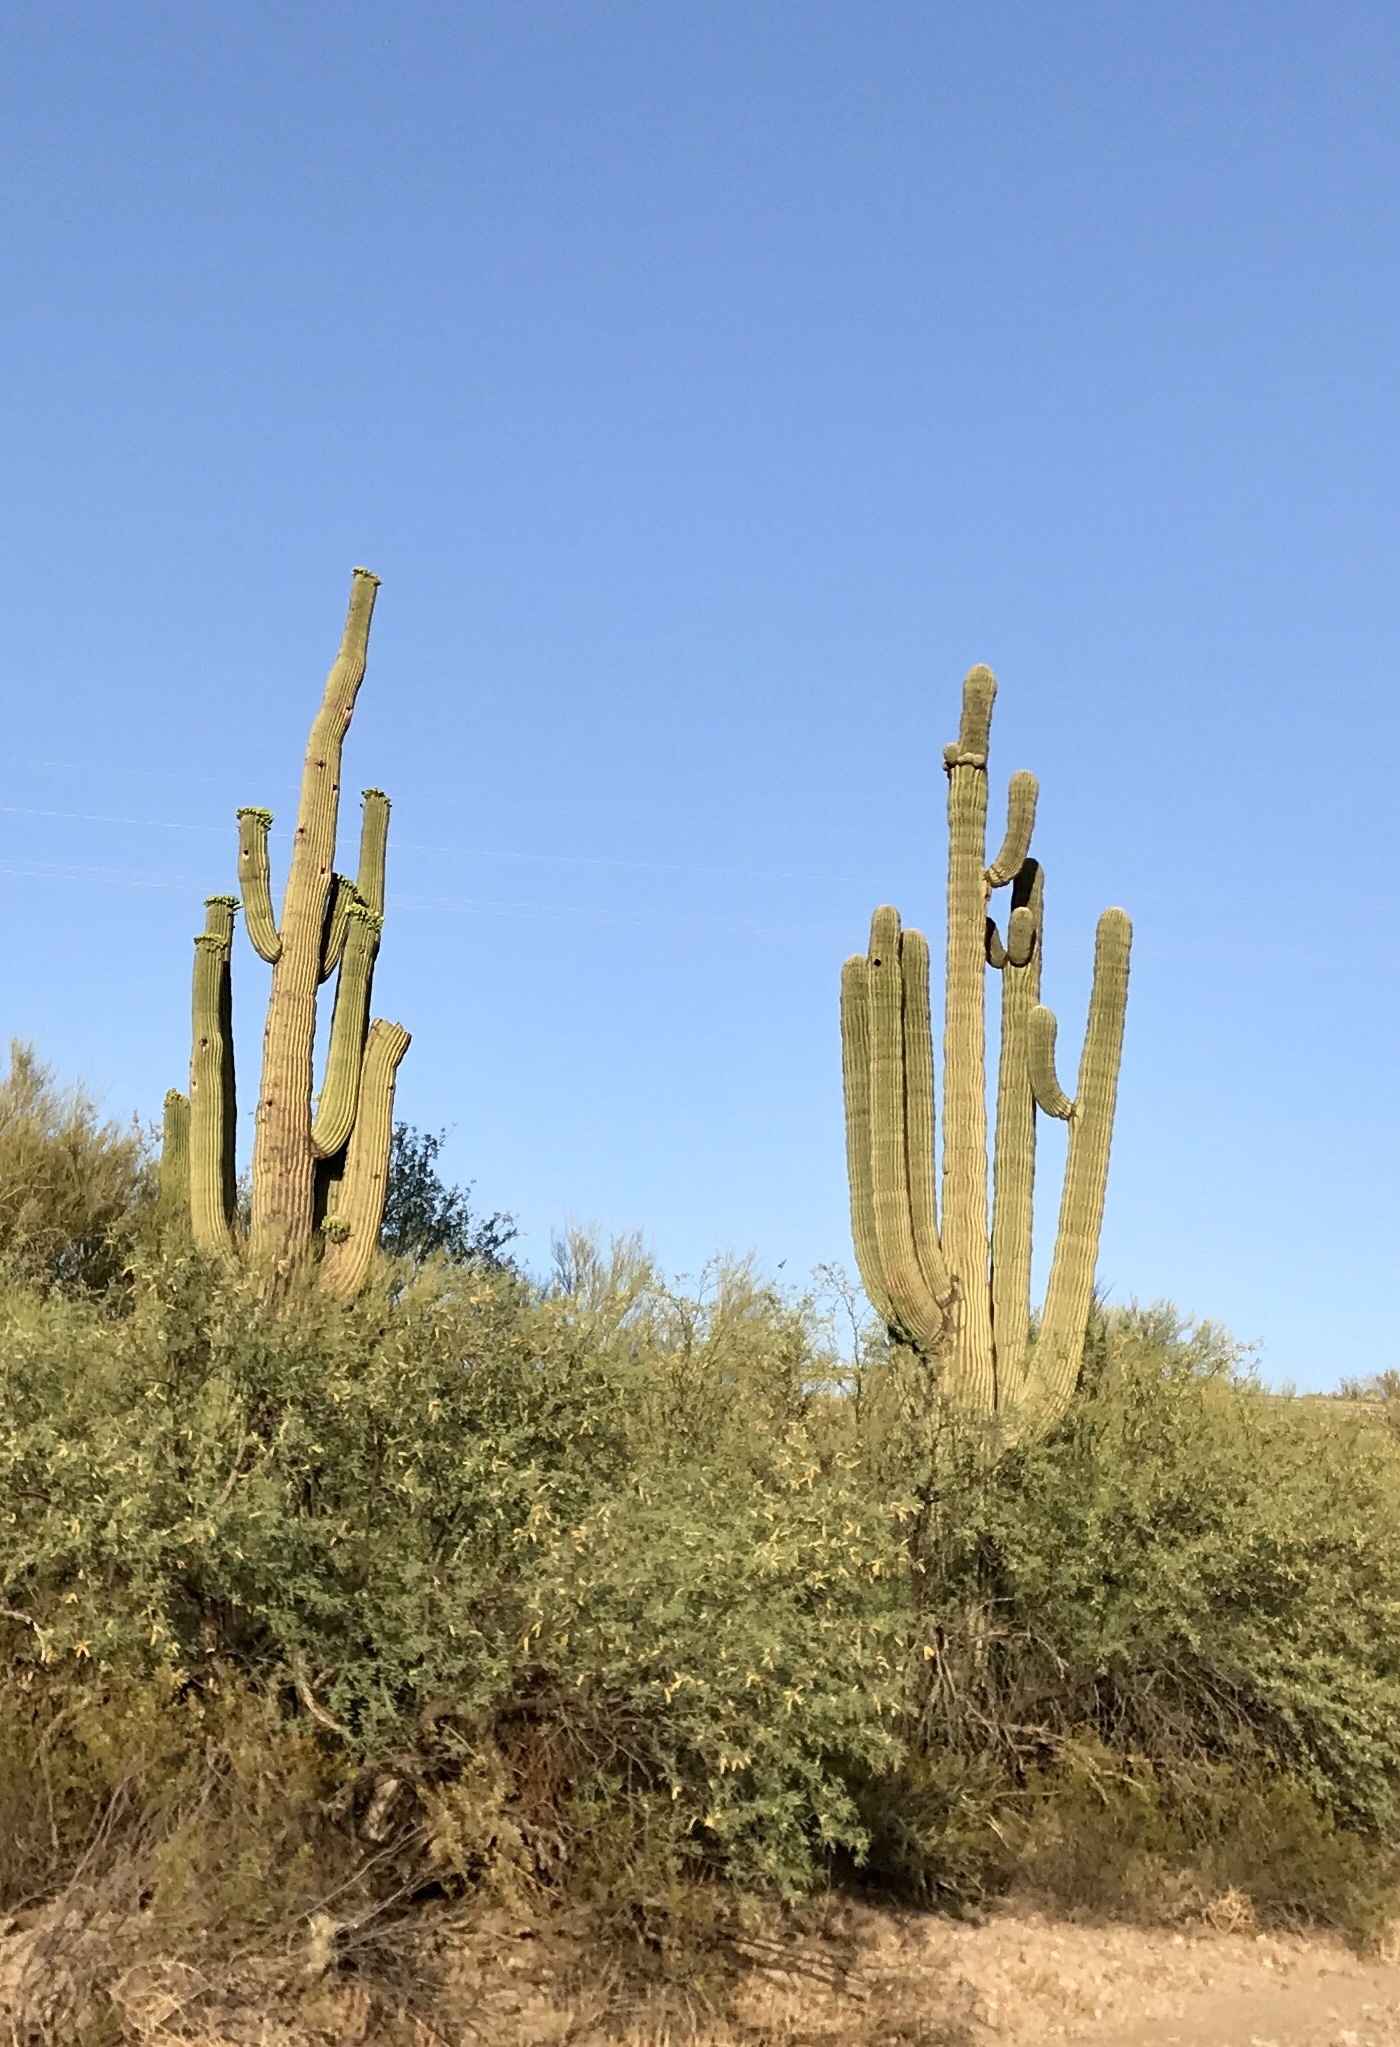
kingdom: Plantae
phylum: Tracheophyta
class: Magnoliopsida
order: Caryophyllales
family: Cactaceae
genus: Carnegiea
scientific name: Carnegiea gigantea
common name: Saguaro
